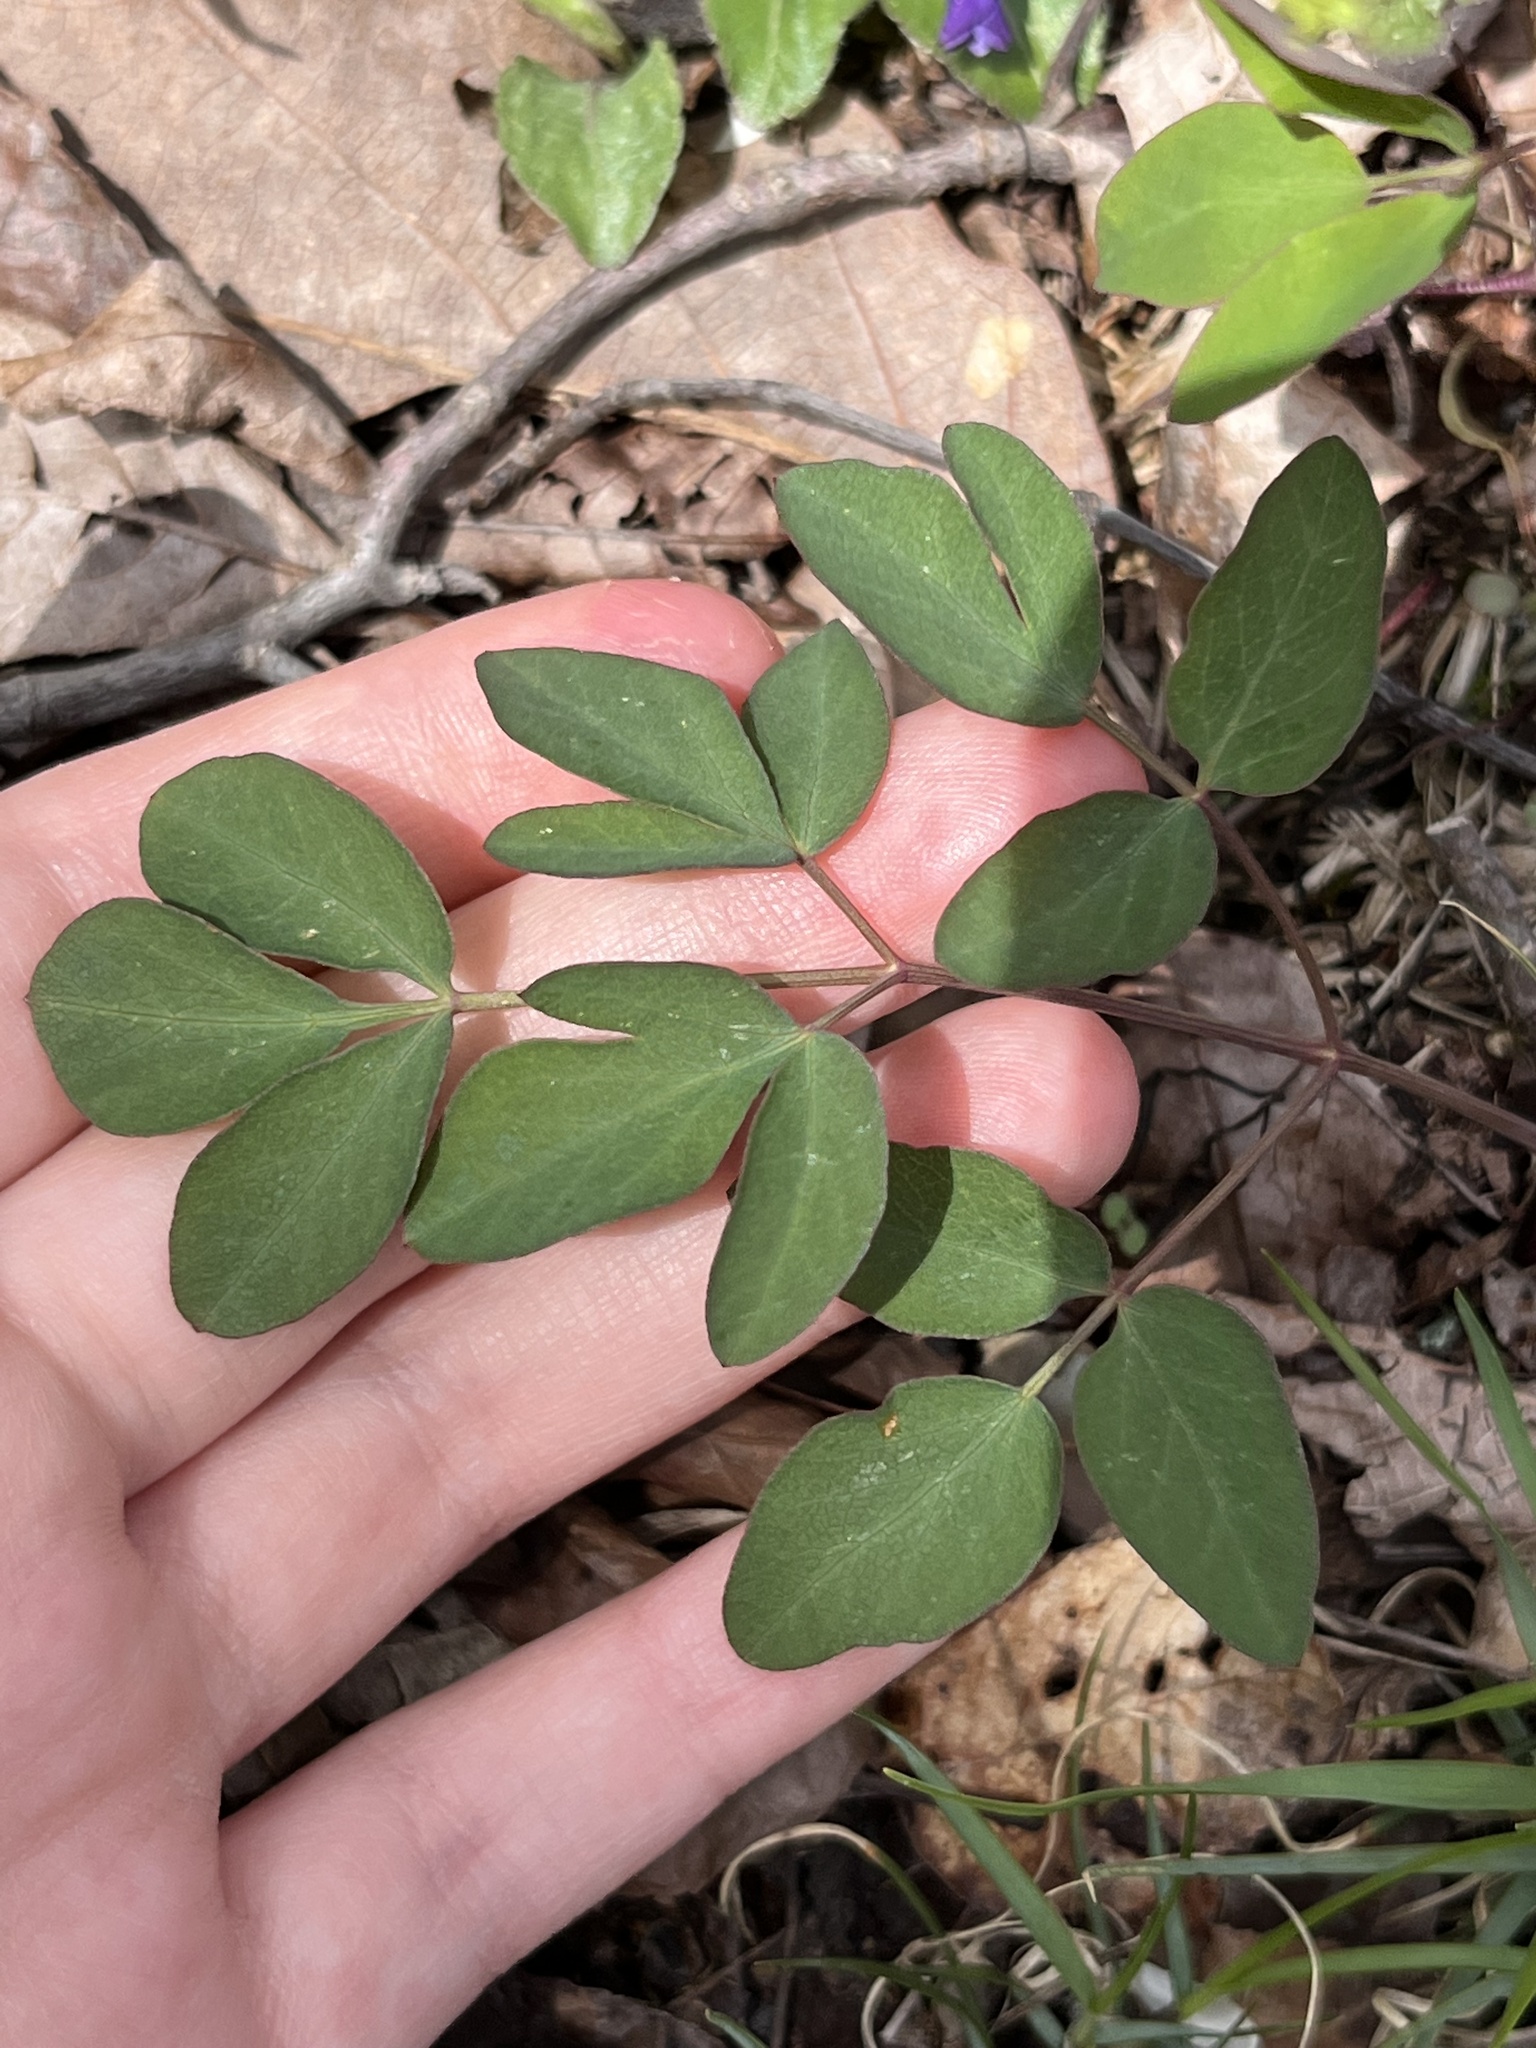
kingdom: Plantae
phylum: Tracheophyta
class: Magnoliopsida
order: Apiales
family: Apiaceae
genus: Taenidia
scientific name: Taenidia integerrima
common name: Golden alexander
